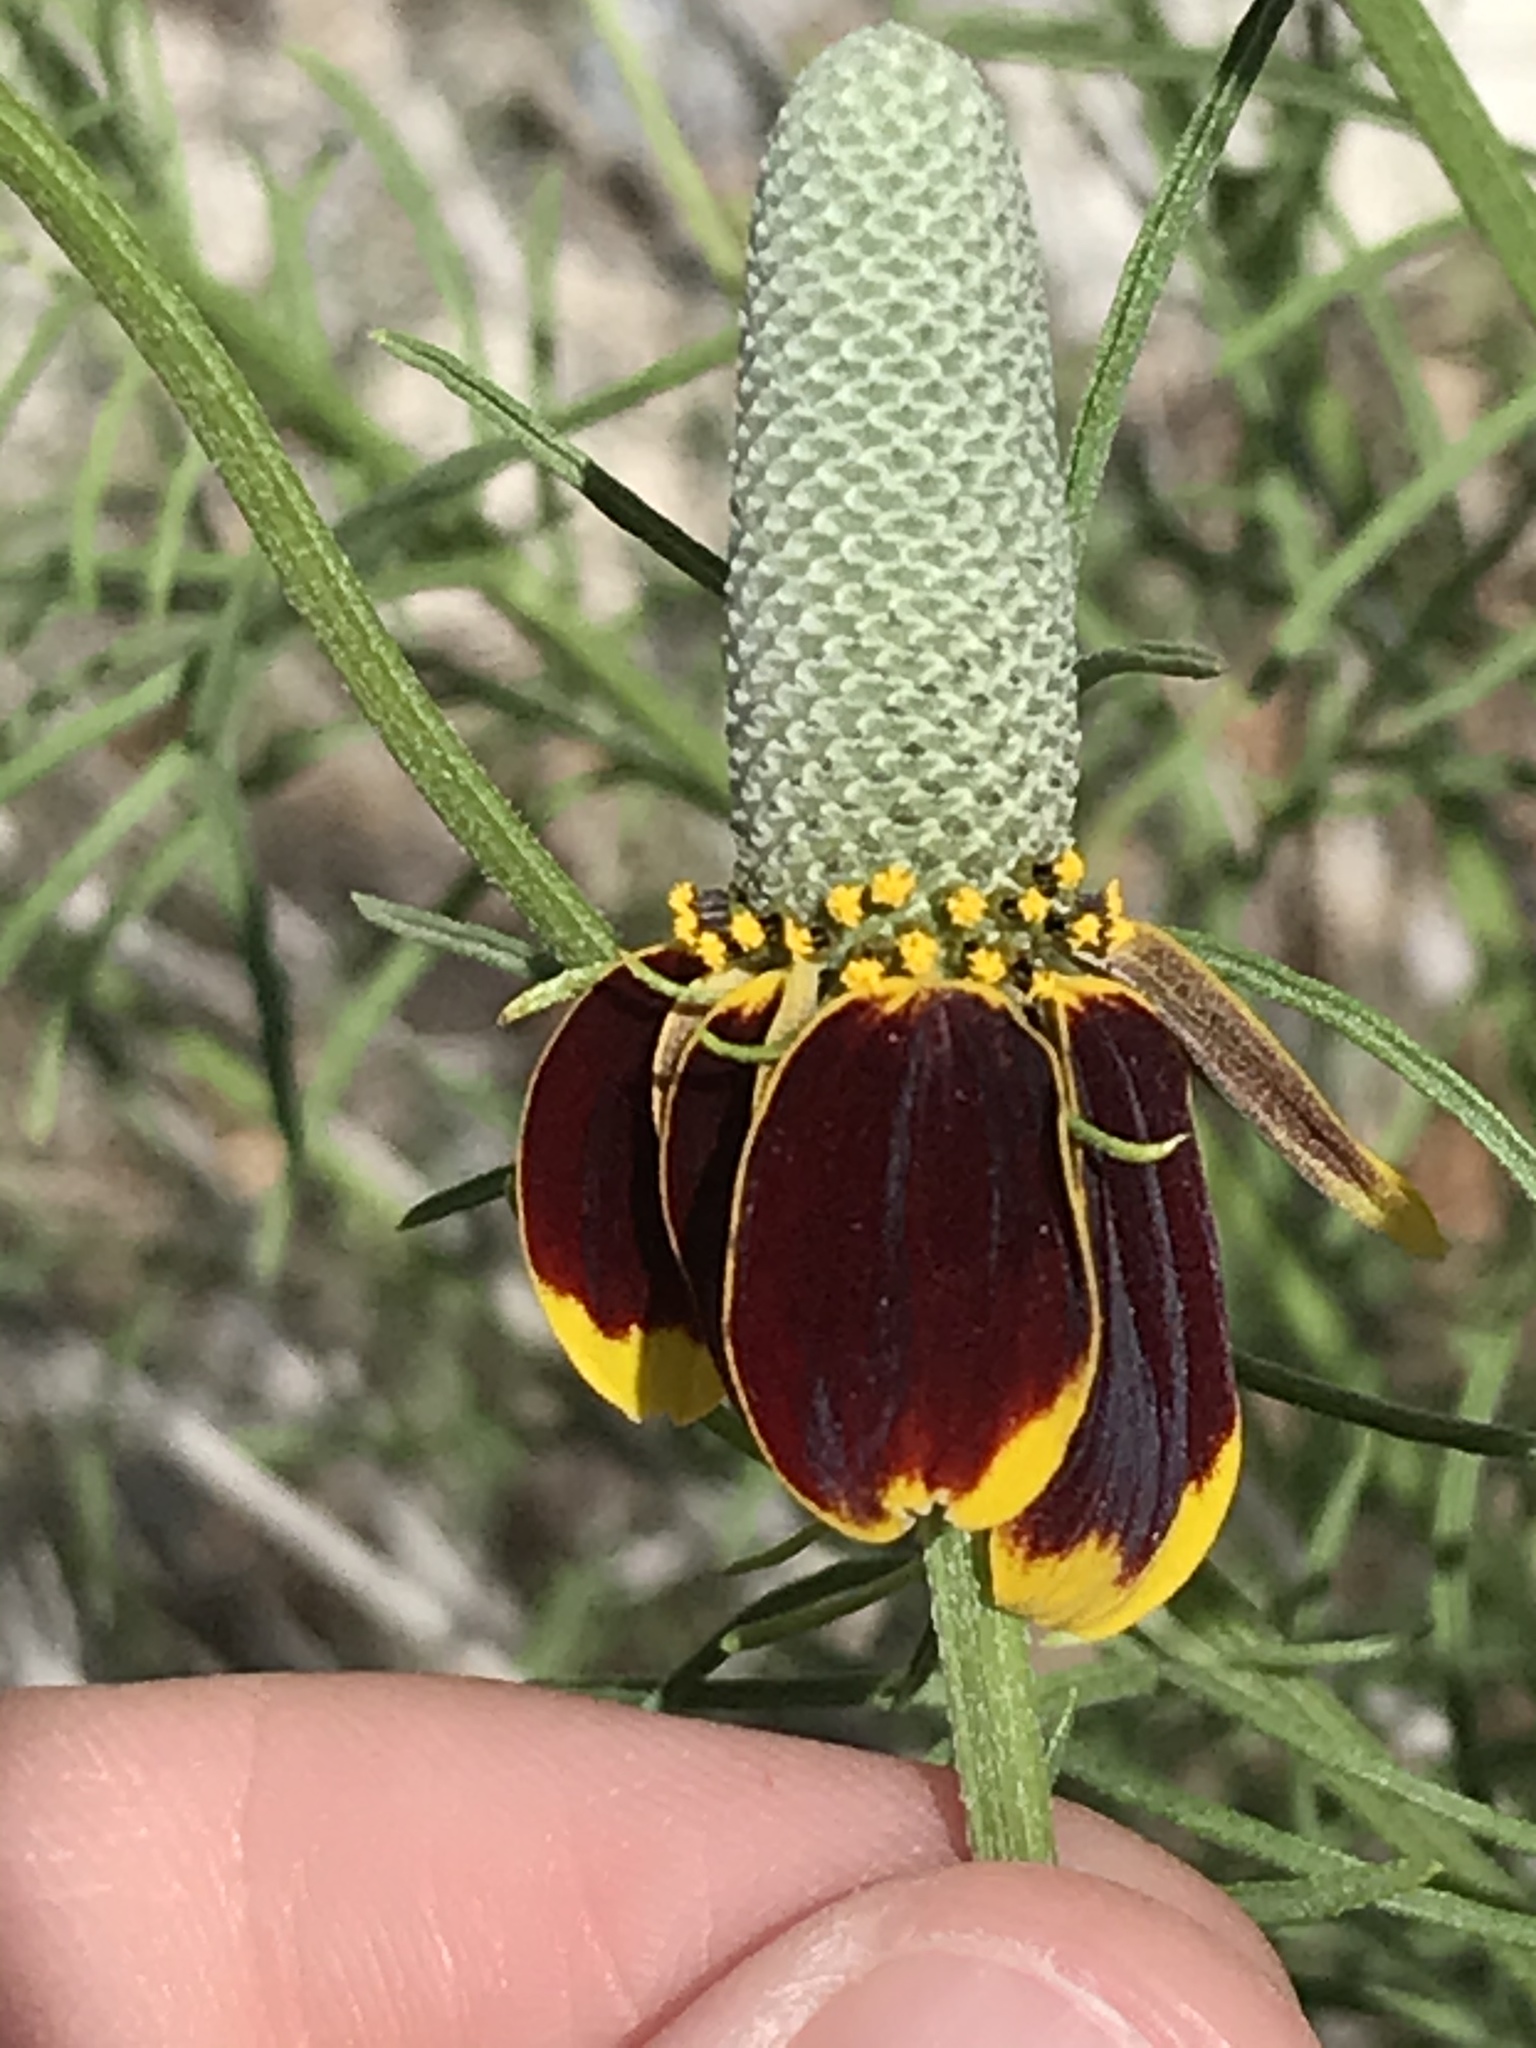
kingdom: Plantae
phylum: Tracheophyta
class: Magnoliopsida
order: Asterales
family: Asteraceae
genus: Ratibida
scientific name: Ratibida columnifera
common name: Prairie coneflower
